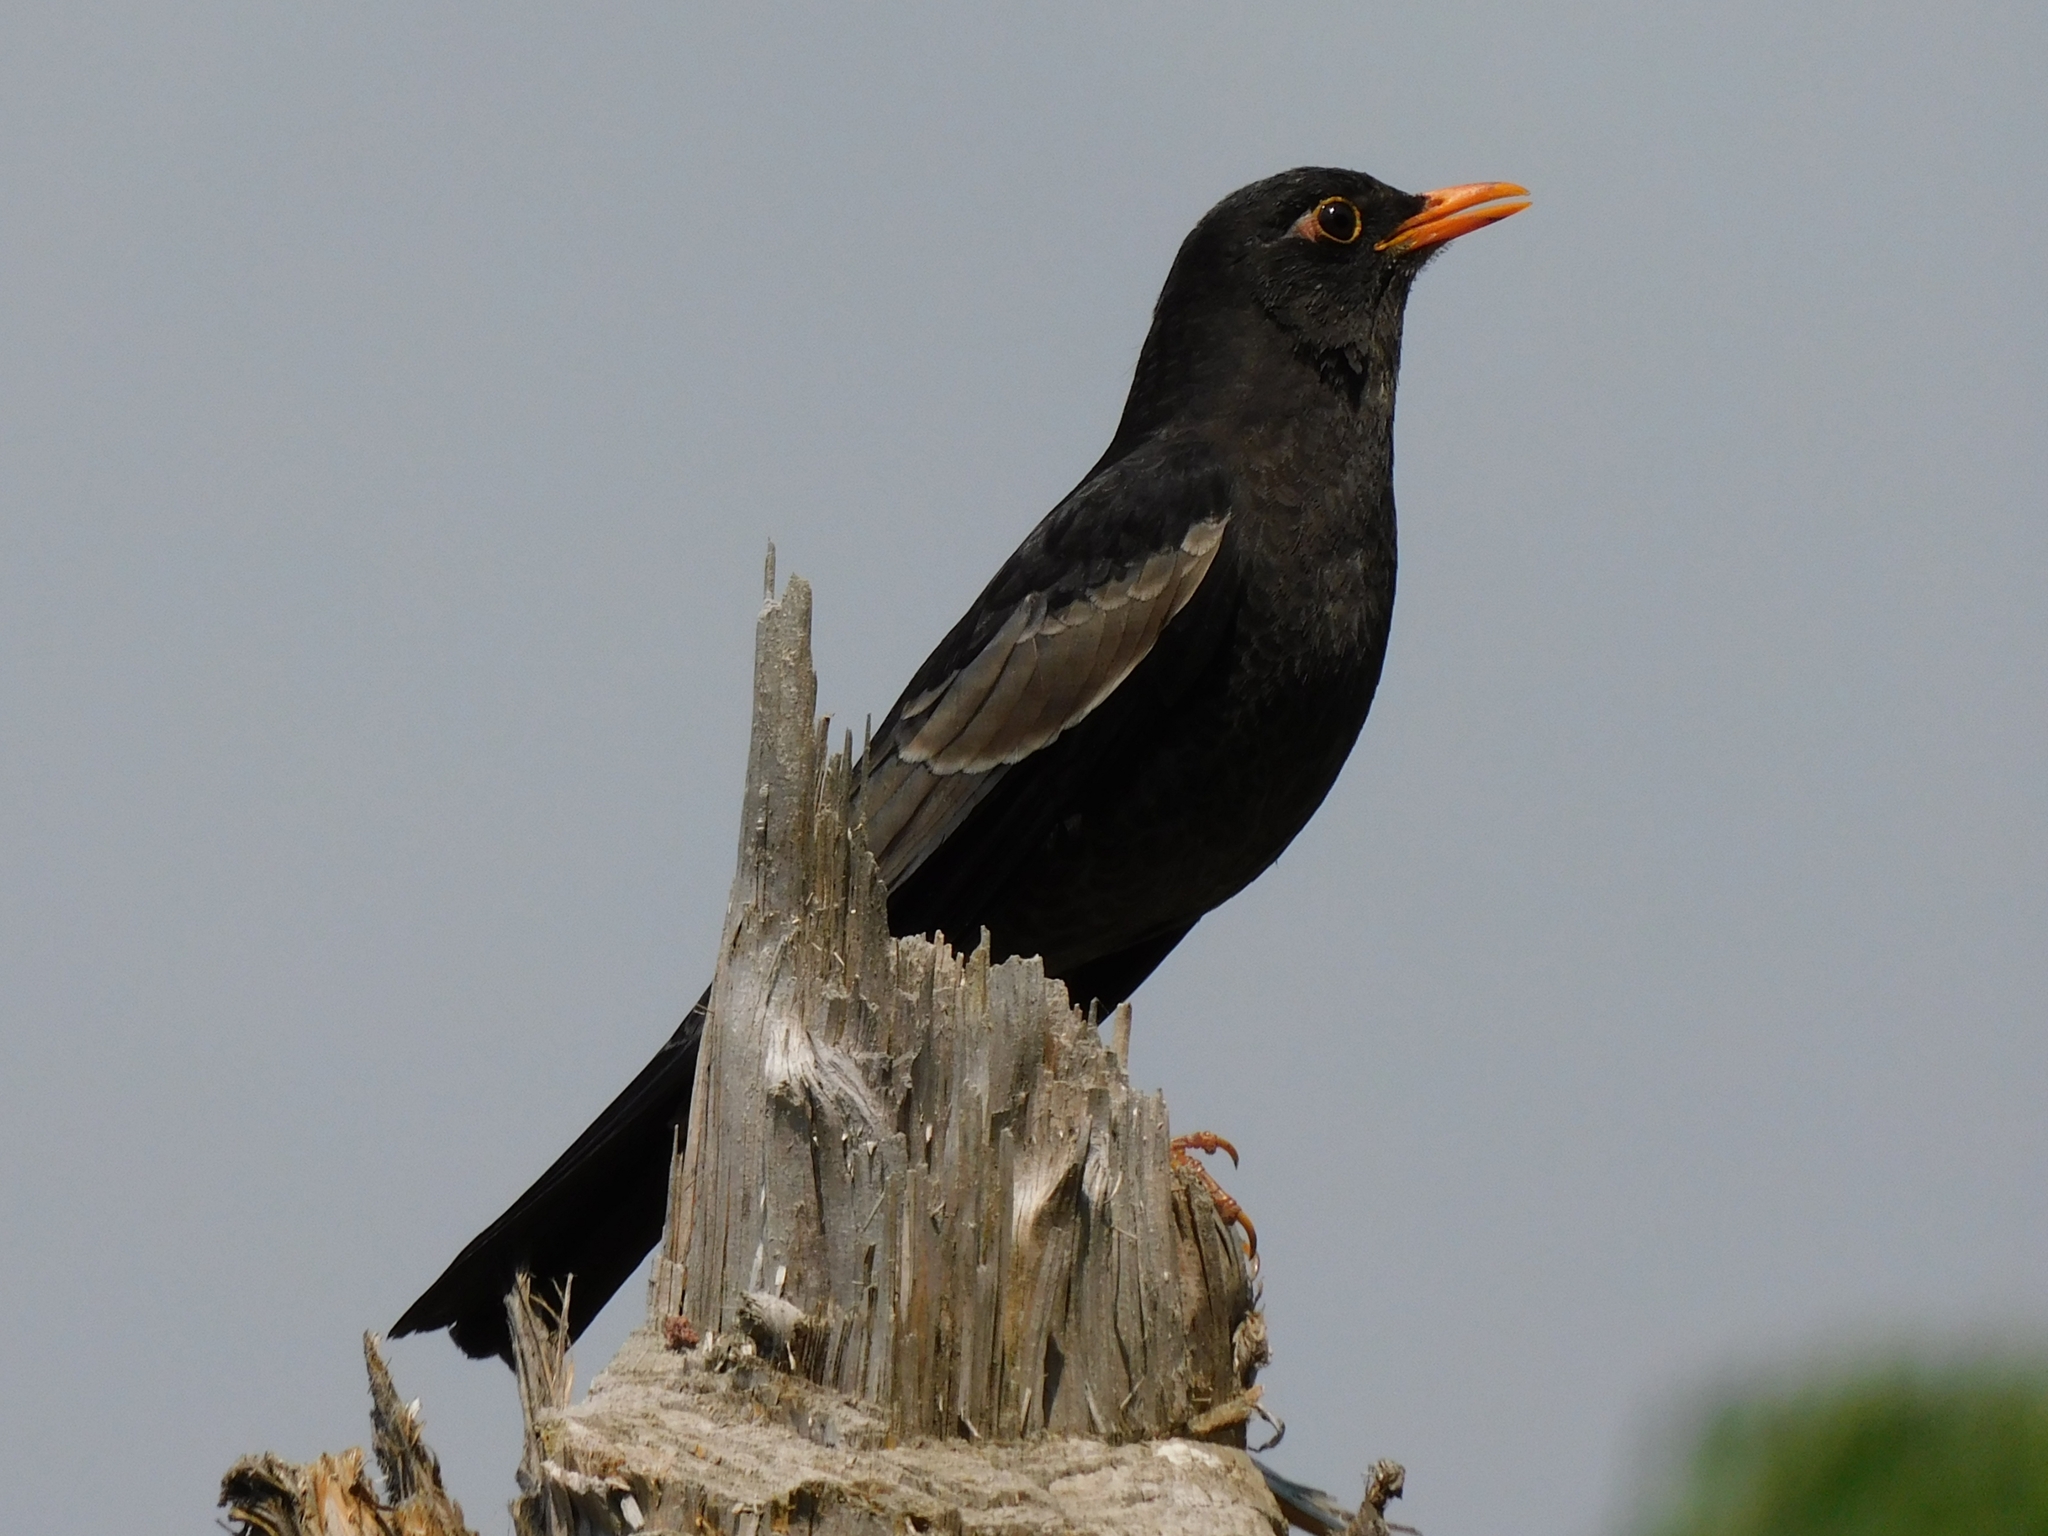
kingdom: Animalia
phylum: Chordata
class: Aves
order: Passeriformes
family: Turdidae
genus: Turdus
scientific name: Turdus boulboul
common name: Grey-winged blackbird
